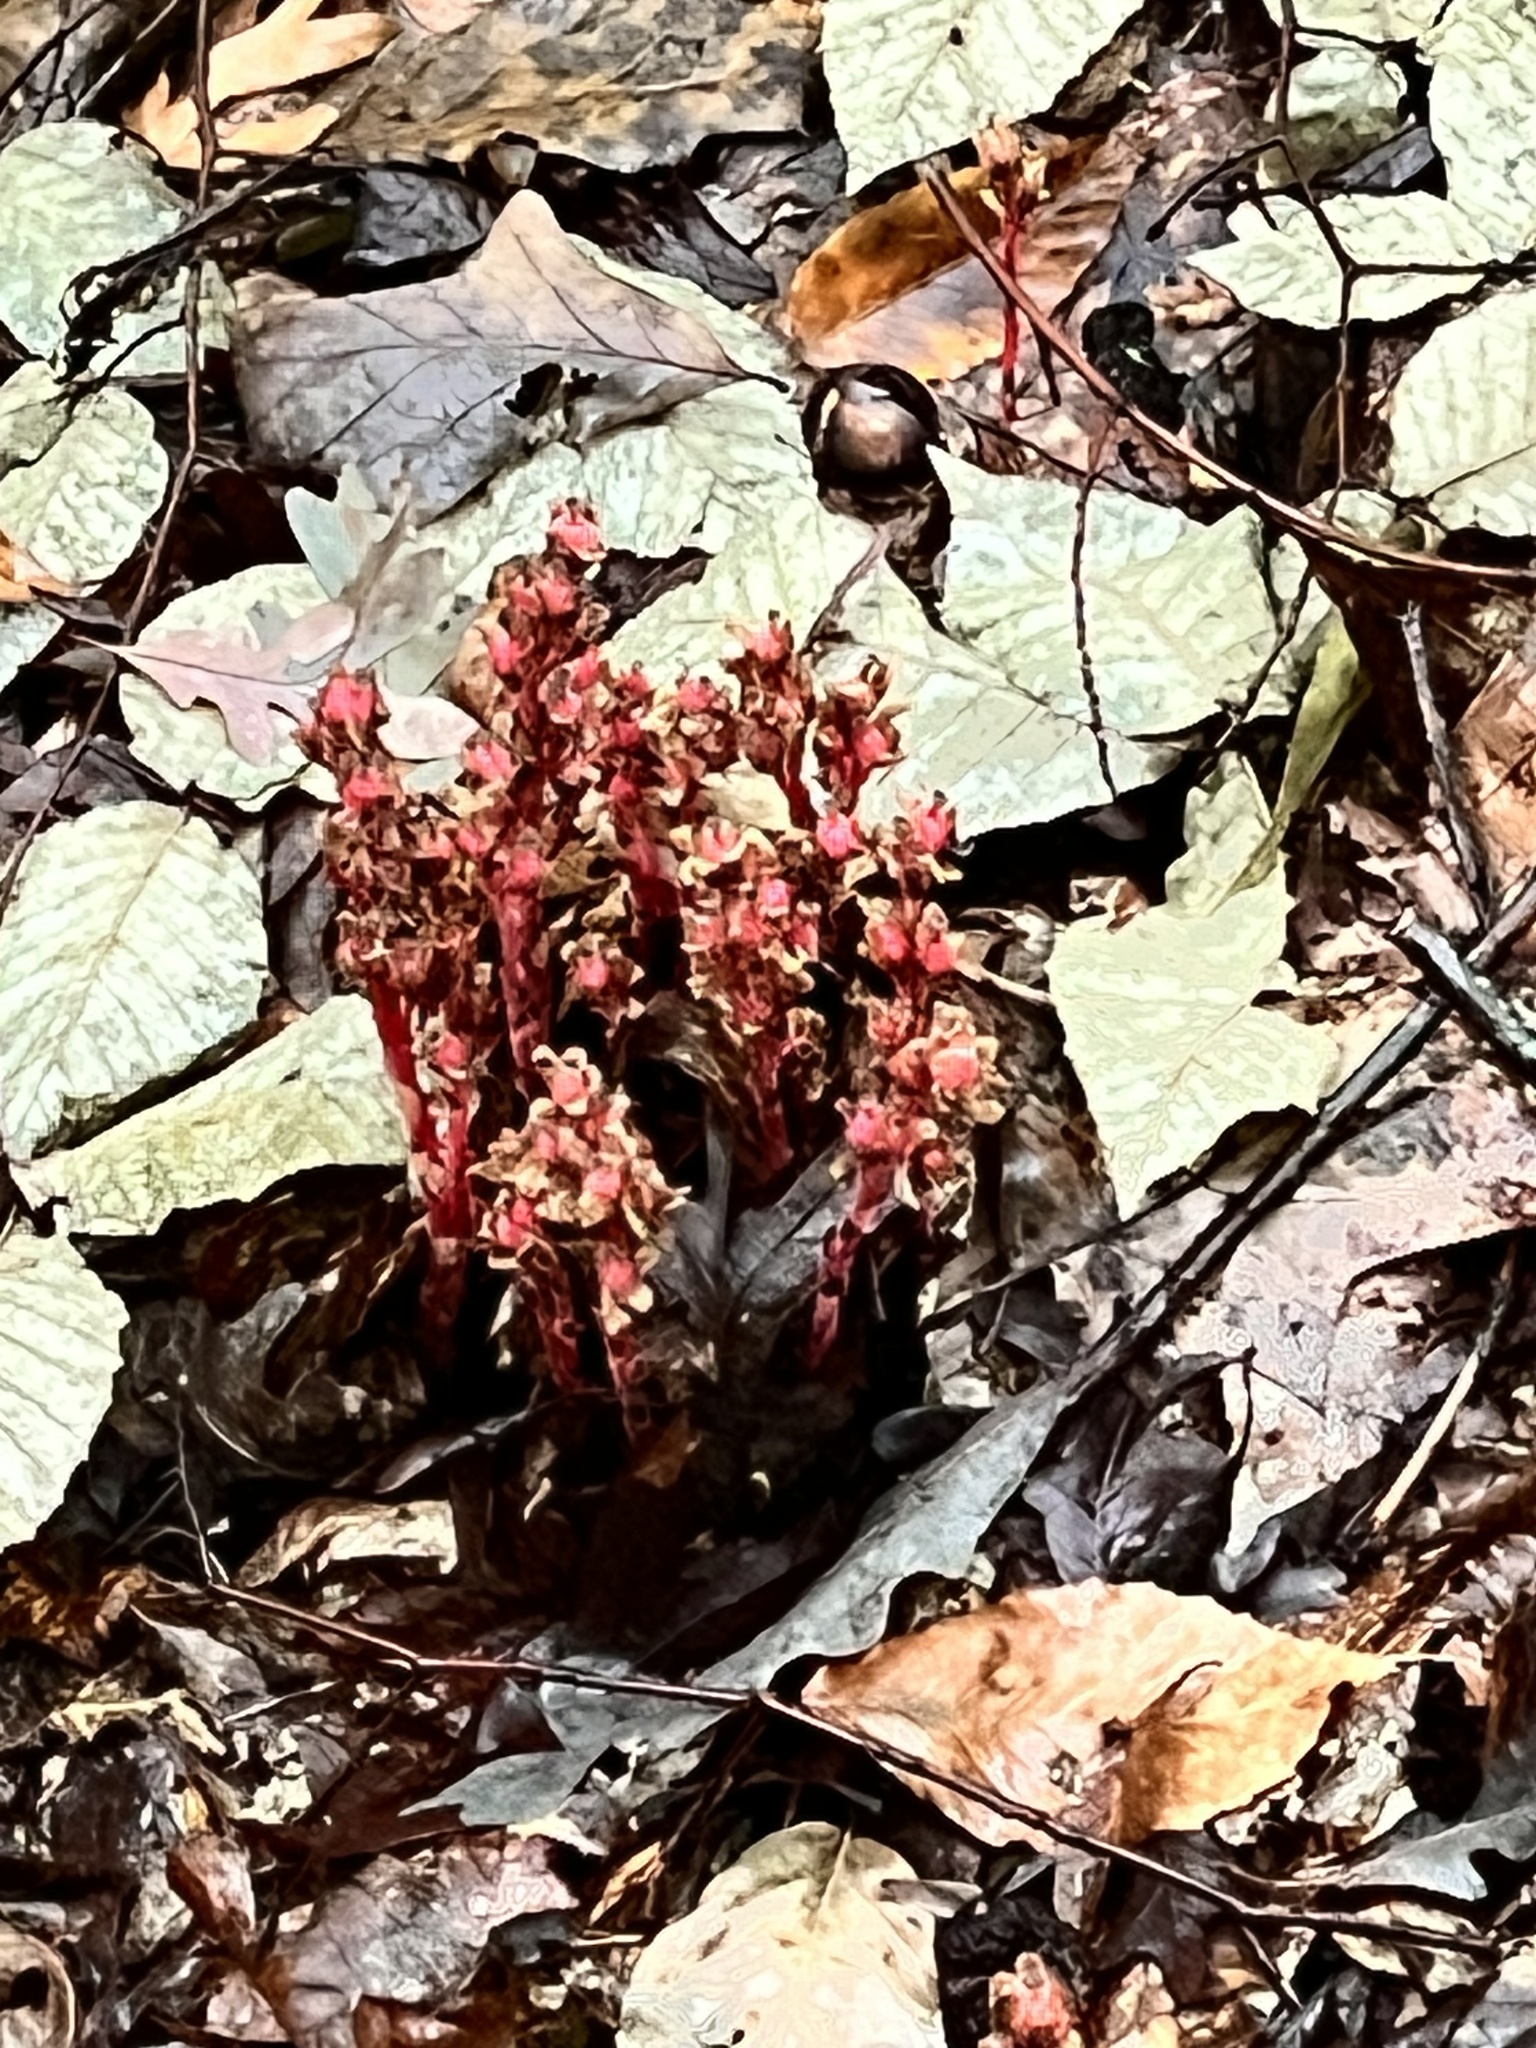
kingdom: Plantae
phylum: Tracheophyta
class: Magnoliopsida
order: Ericales
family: Ericaceae
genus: Hypopitys
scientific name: Hypopitys monotropa
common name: Yellow bird's-nest
